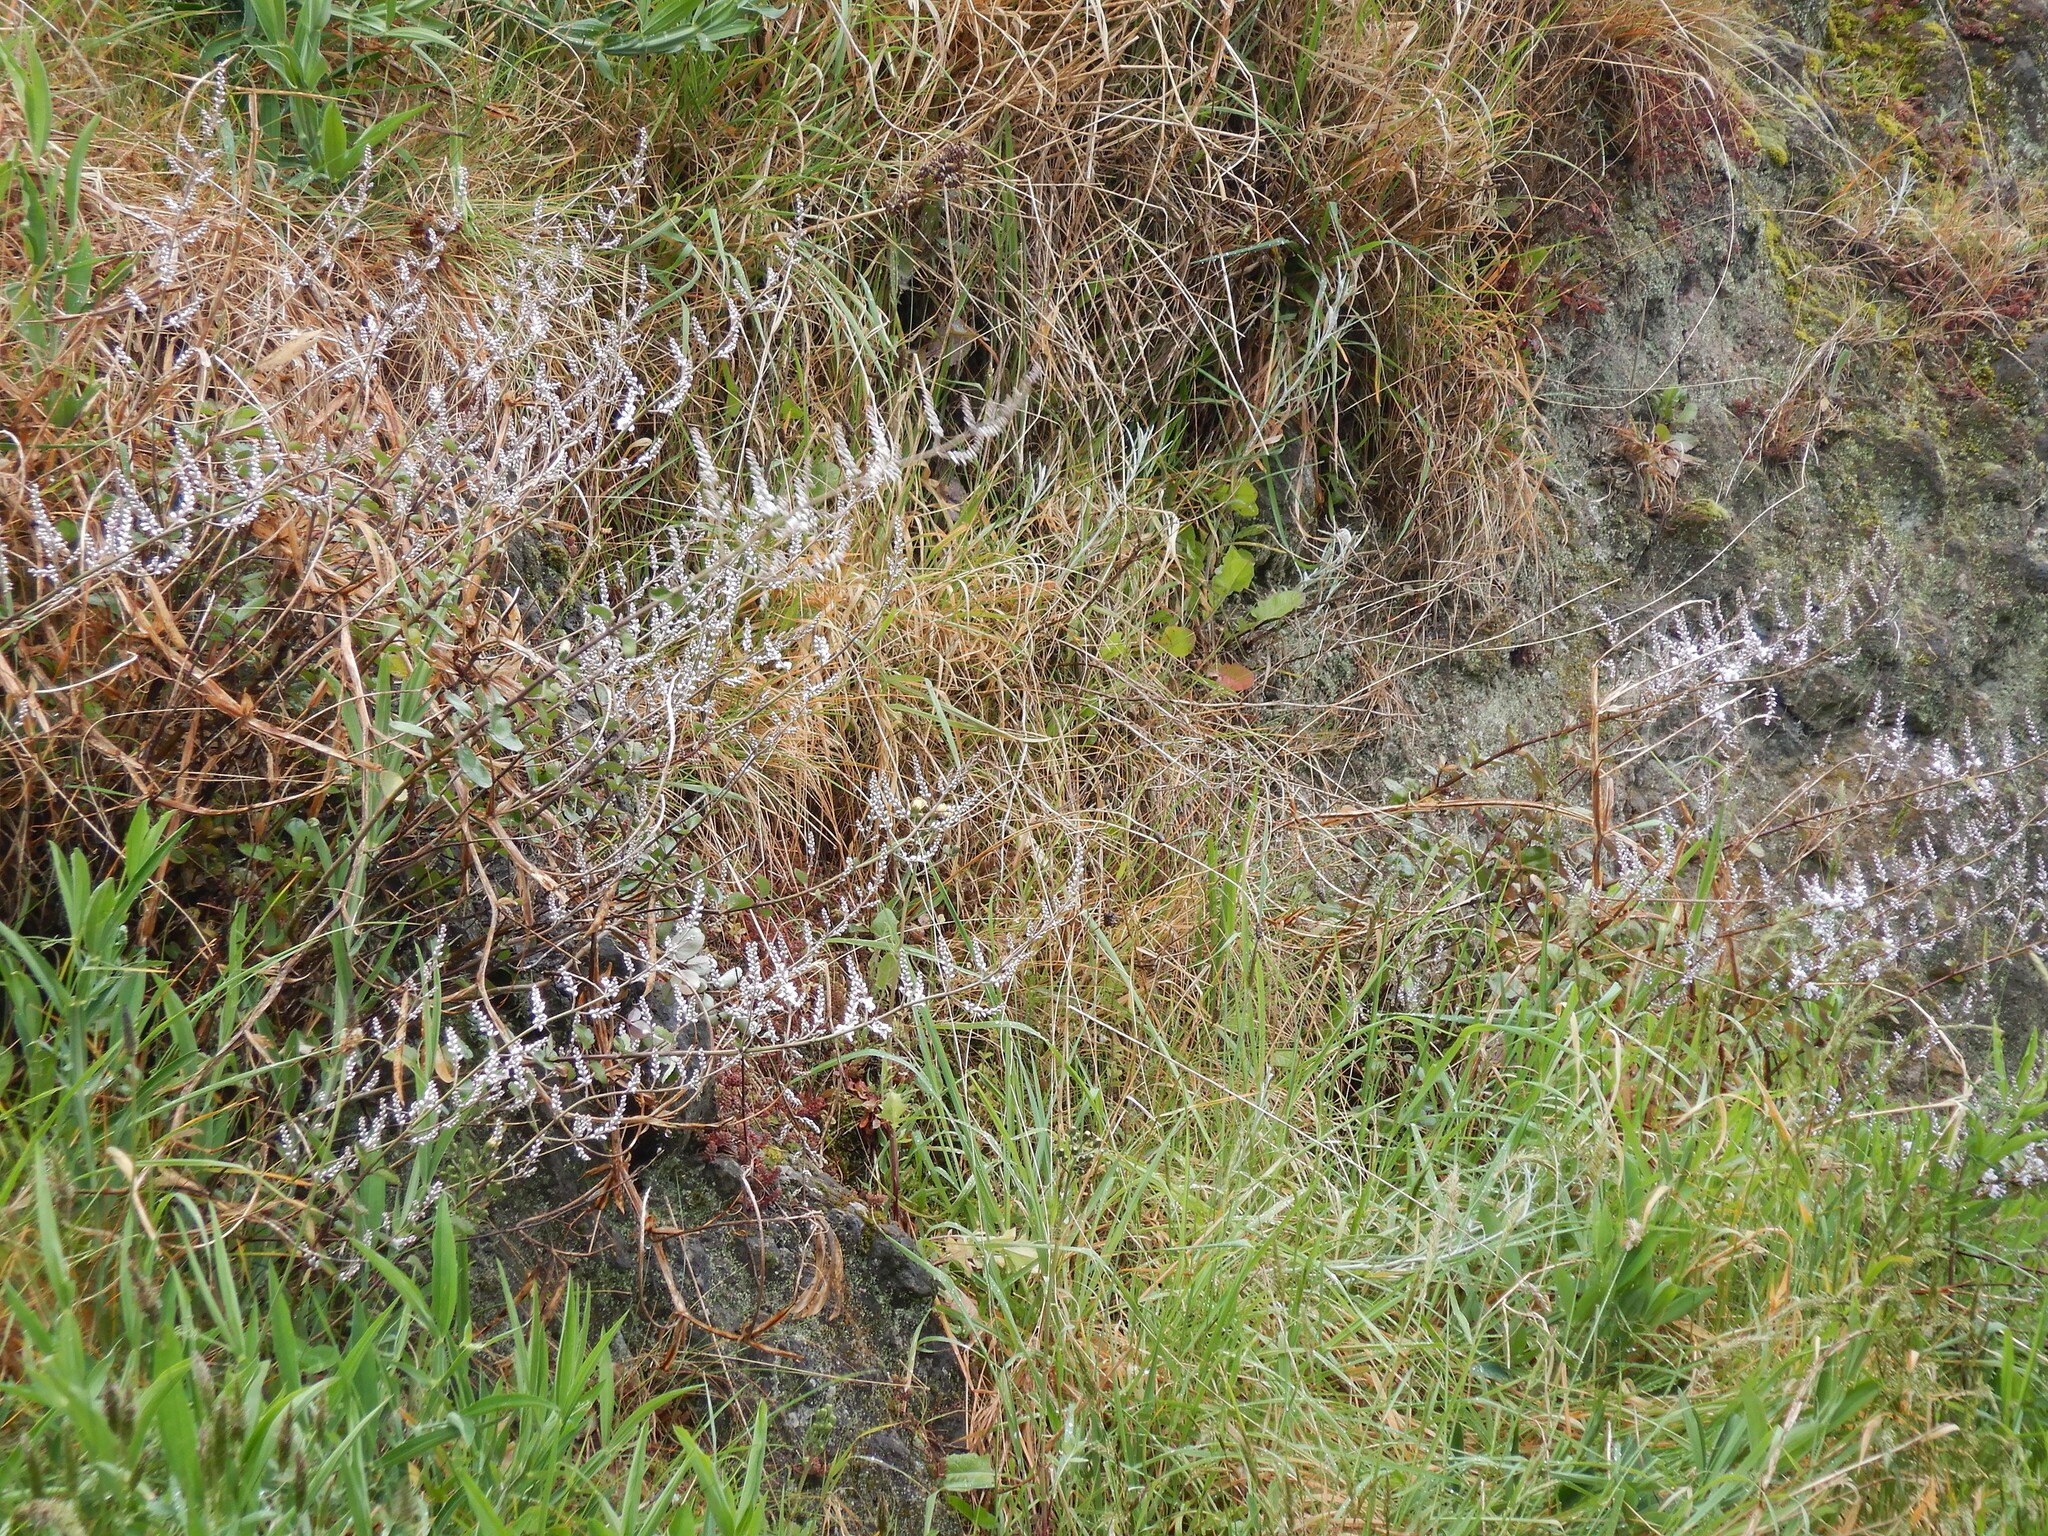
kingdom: Plantae
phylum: Tracheophyta
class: Magnoliopsida
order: Lamiales
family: Plantaginaceae
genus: Veronica
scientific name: Veronica lavaudiana
